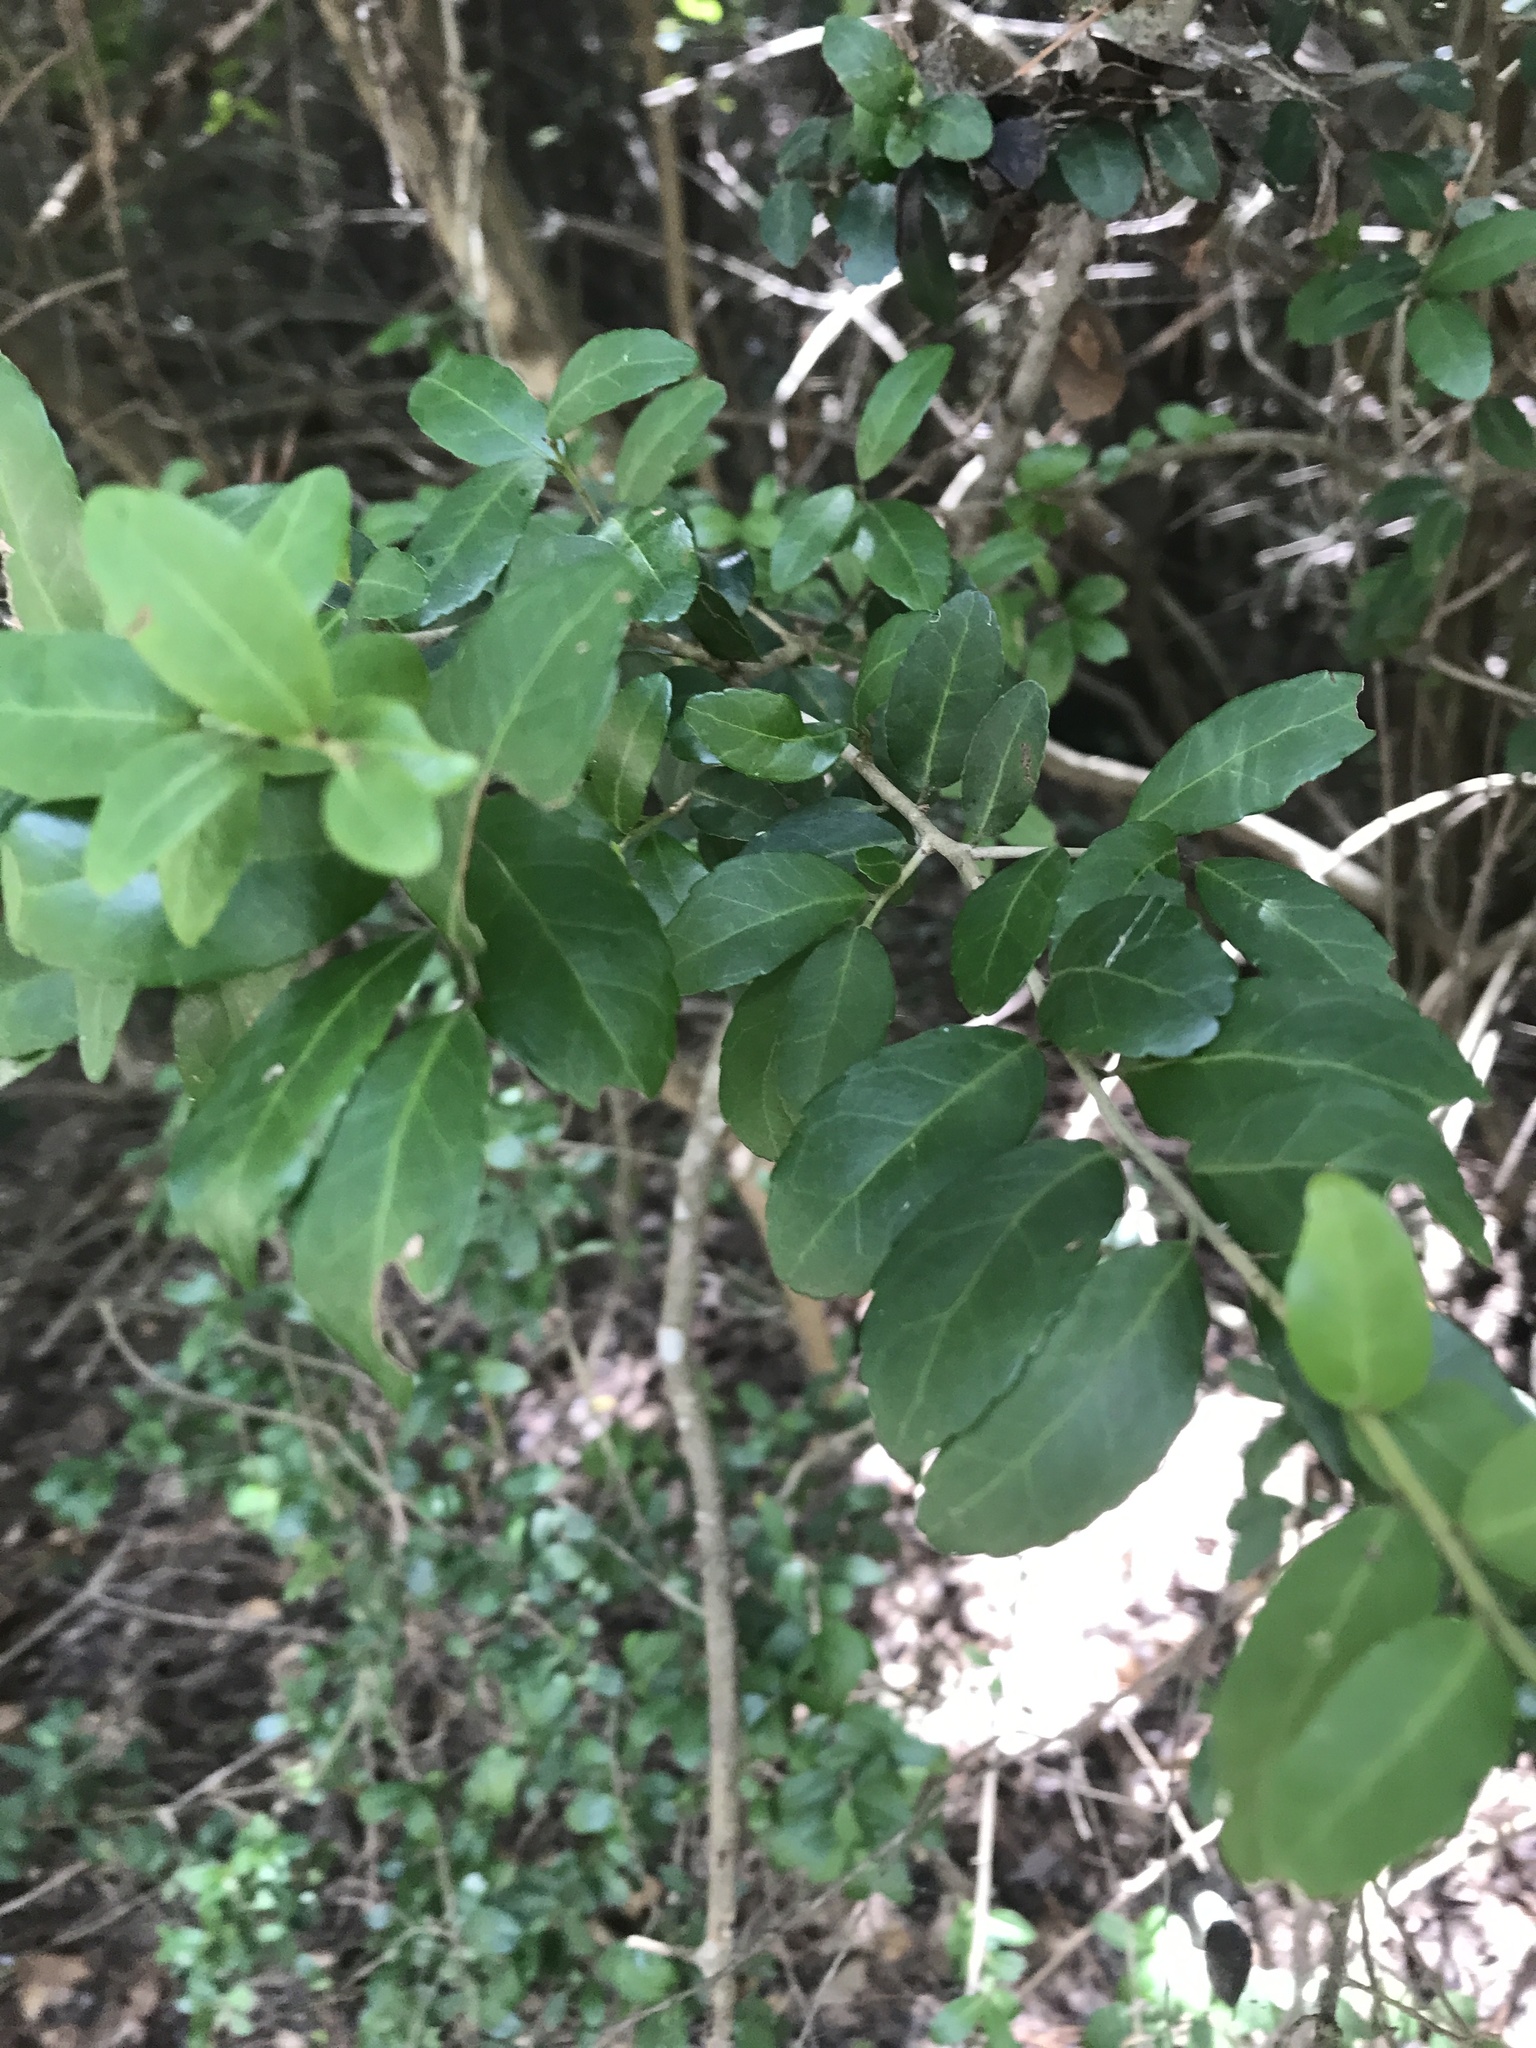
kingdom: Plantae
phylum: Tracheophyta
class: Magnoliopsida
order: Aquifoliales
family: Aquifoliaceae
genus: Ilex
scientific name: Ilex vomitoria
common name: Yaupon holly
